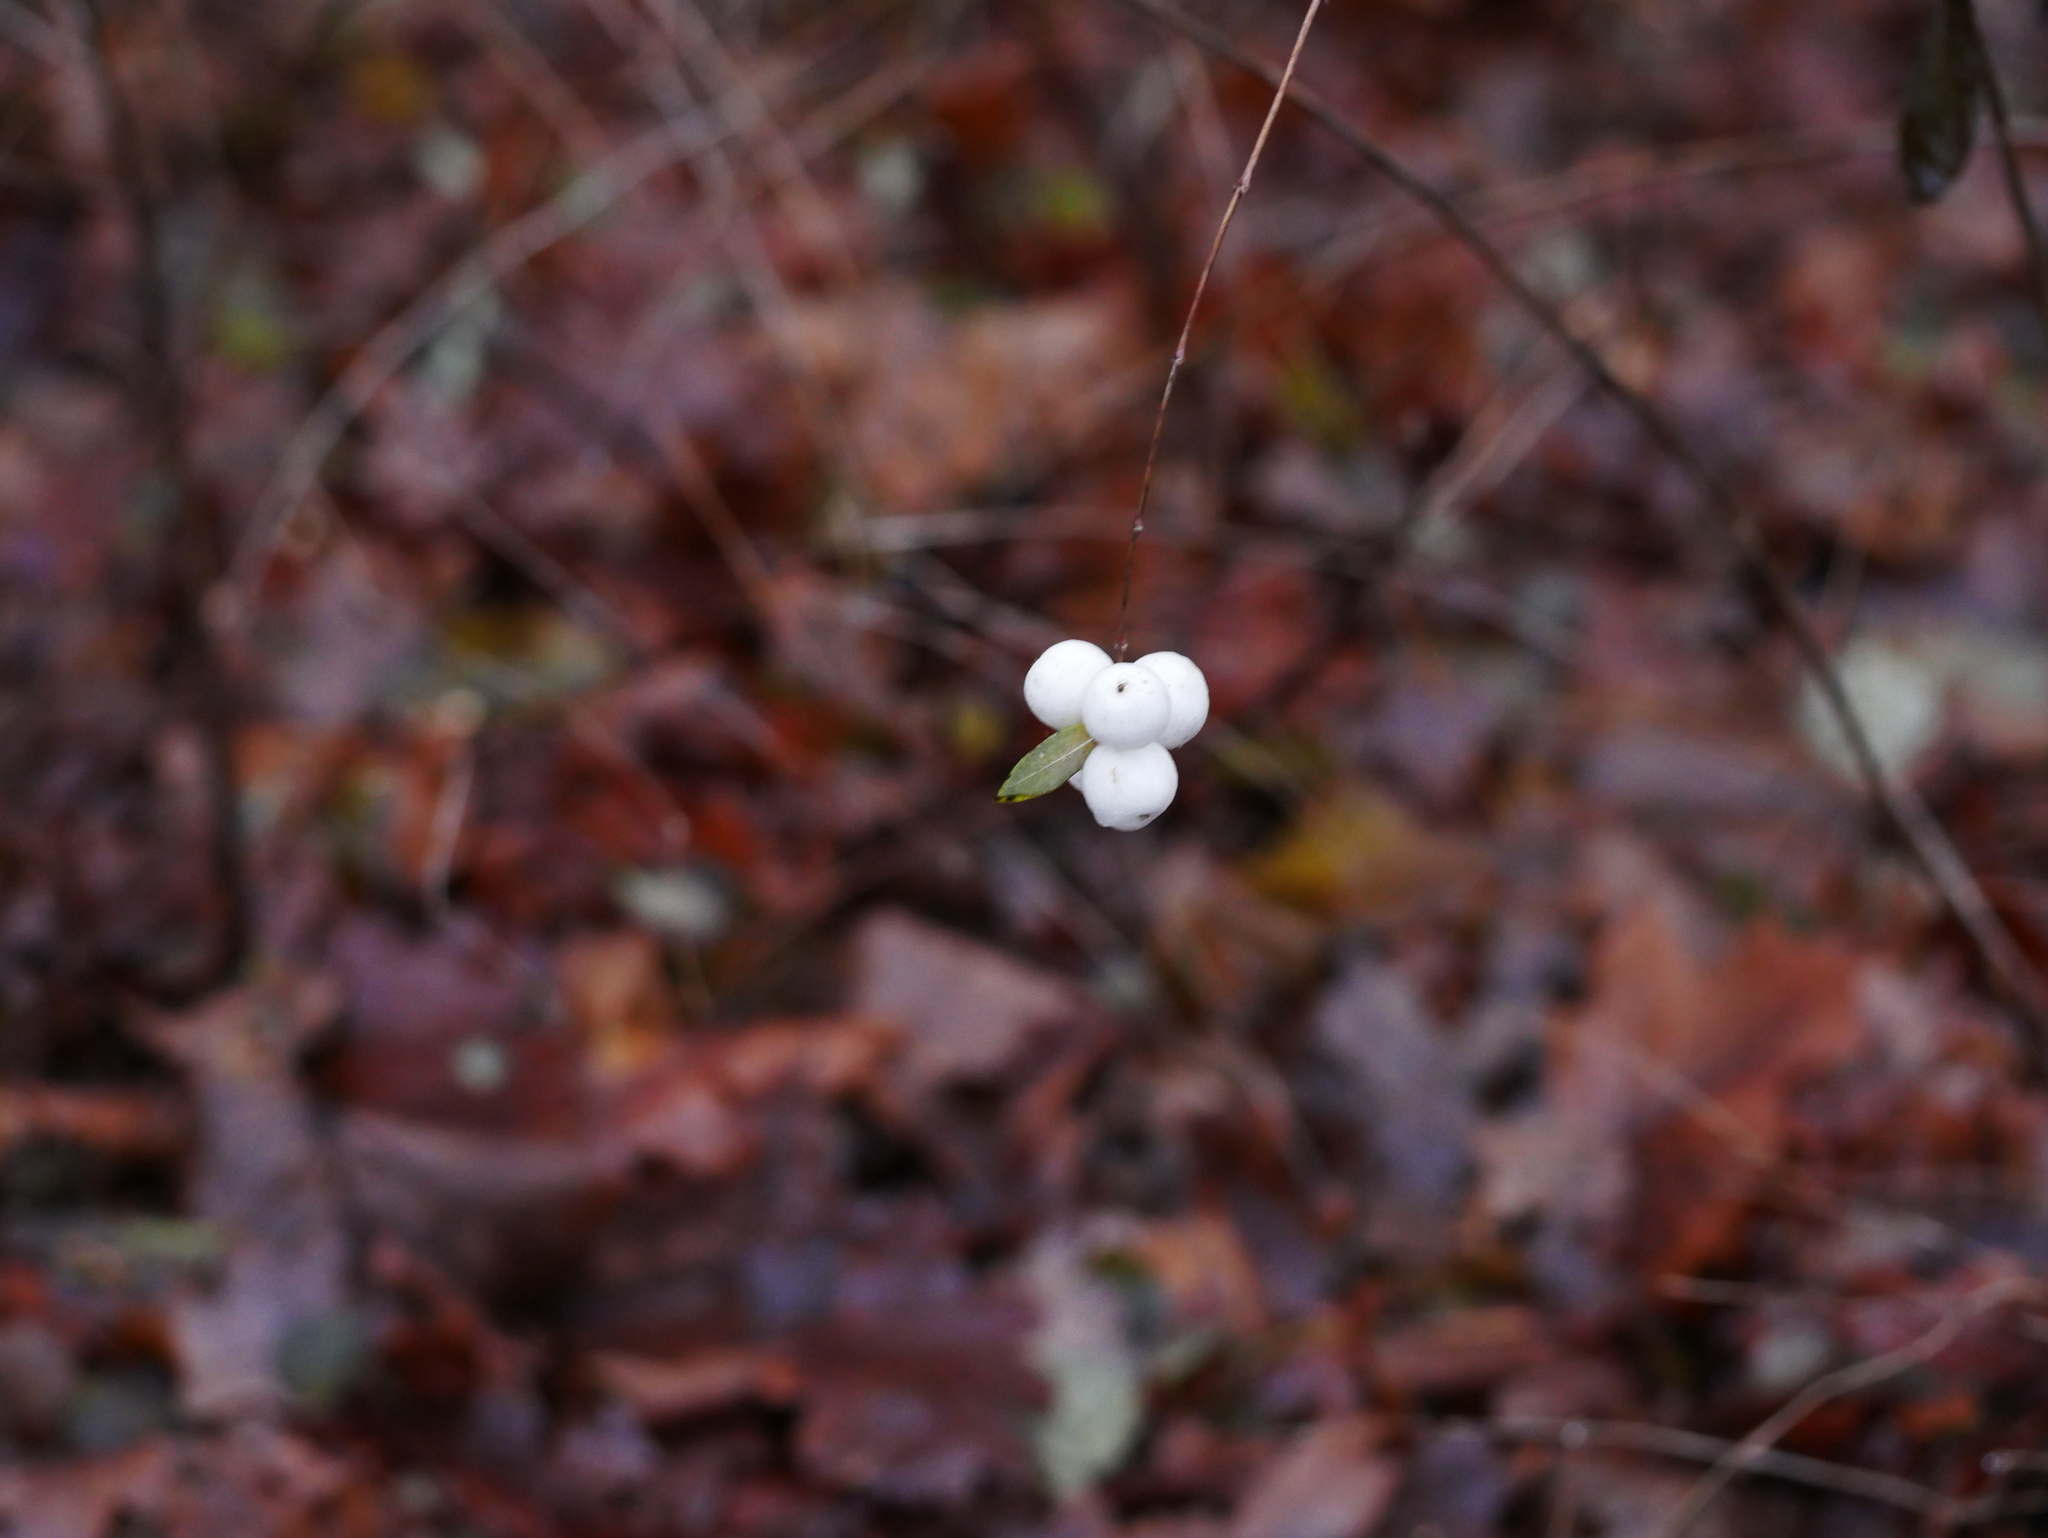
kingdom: Plantae
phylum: Tracheophyta
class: Magnoliopsida
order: Dipsacales
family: Caprifoliaceae
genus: Symphoricarpos
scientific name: Symphoricarpos albus
